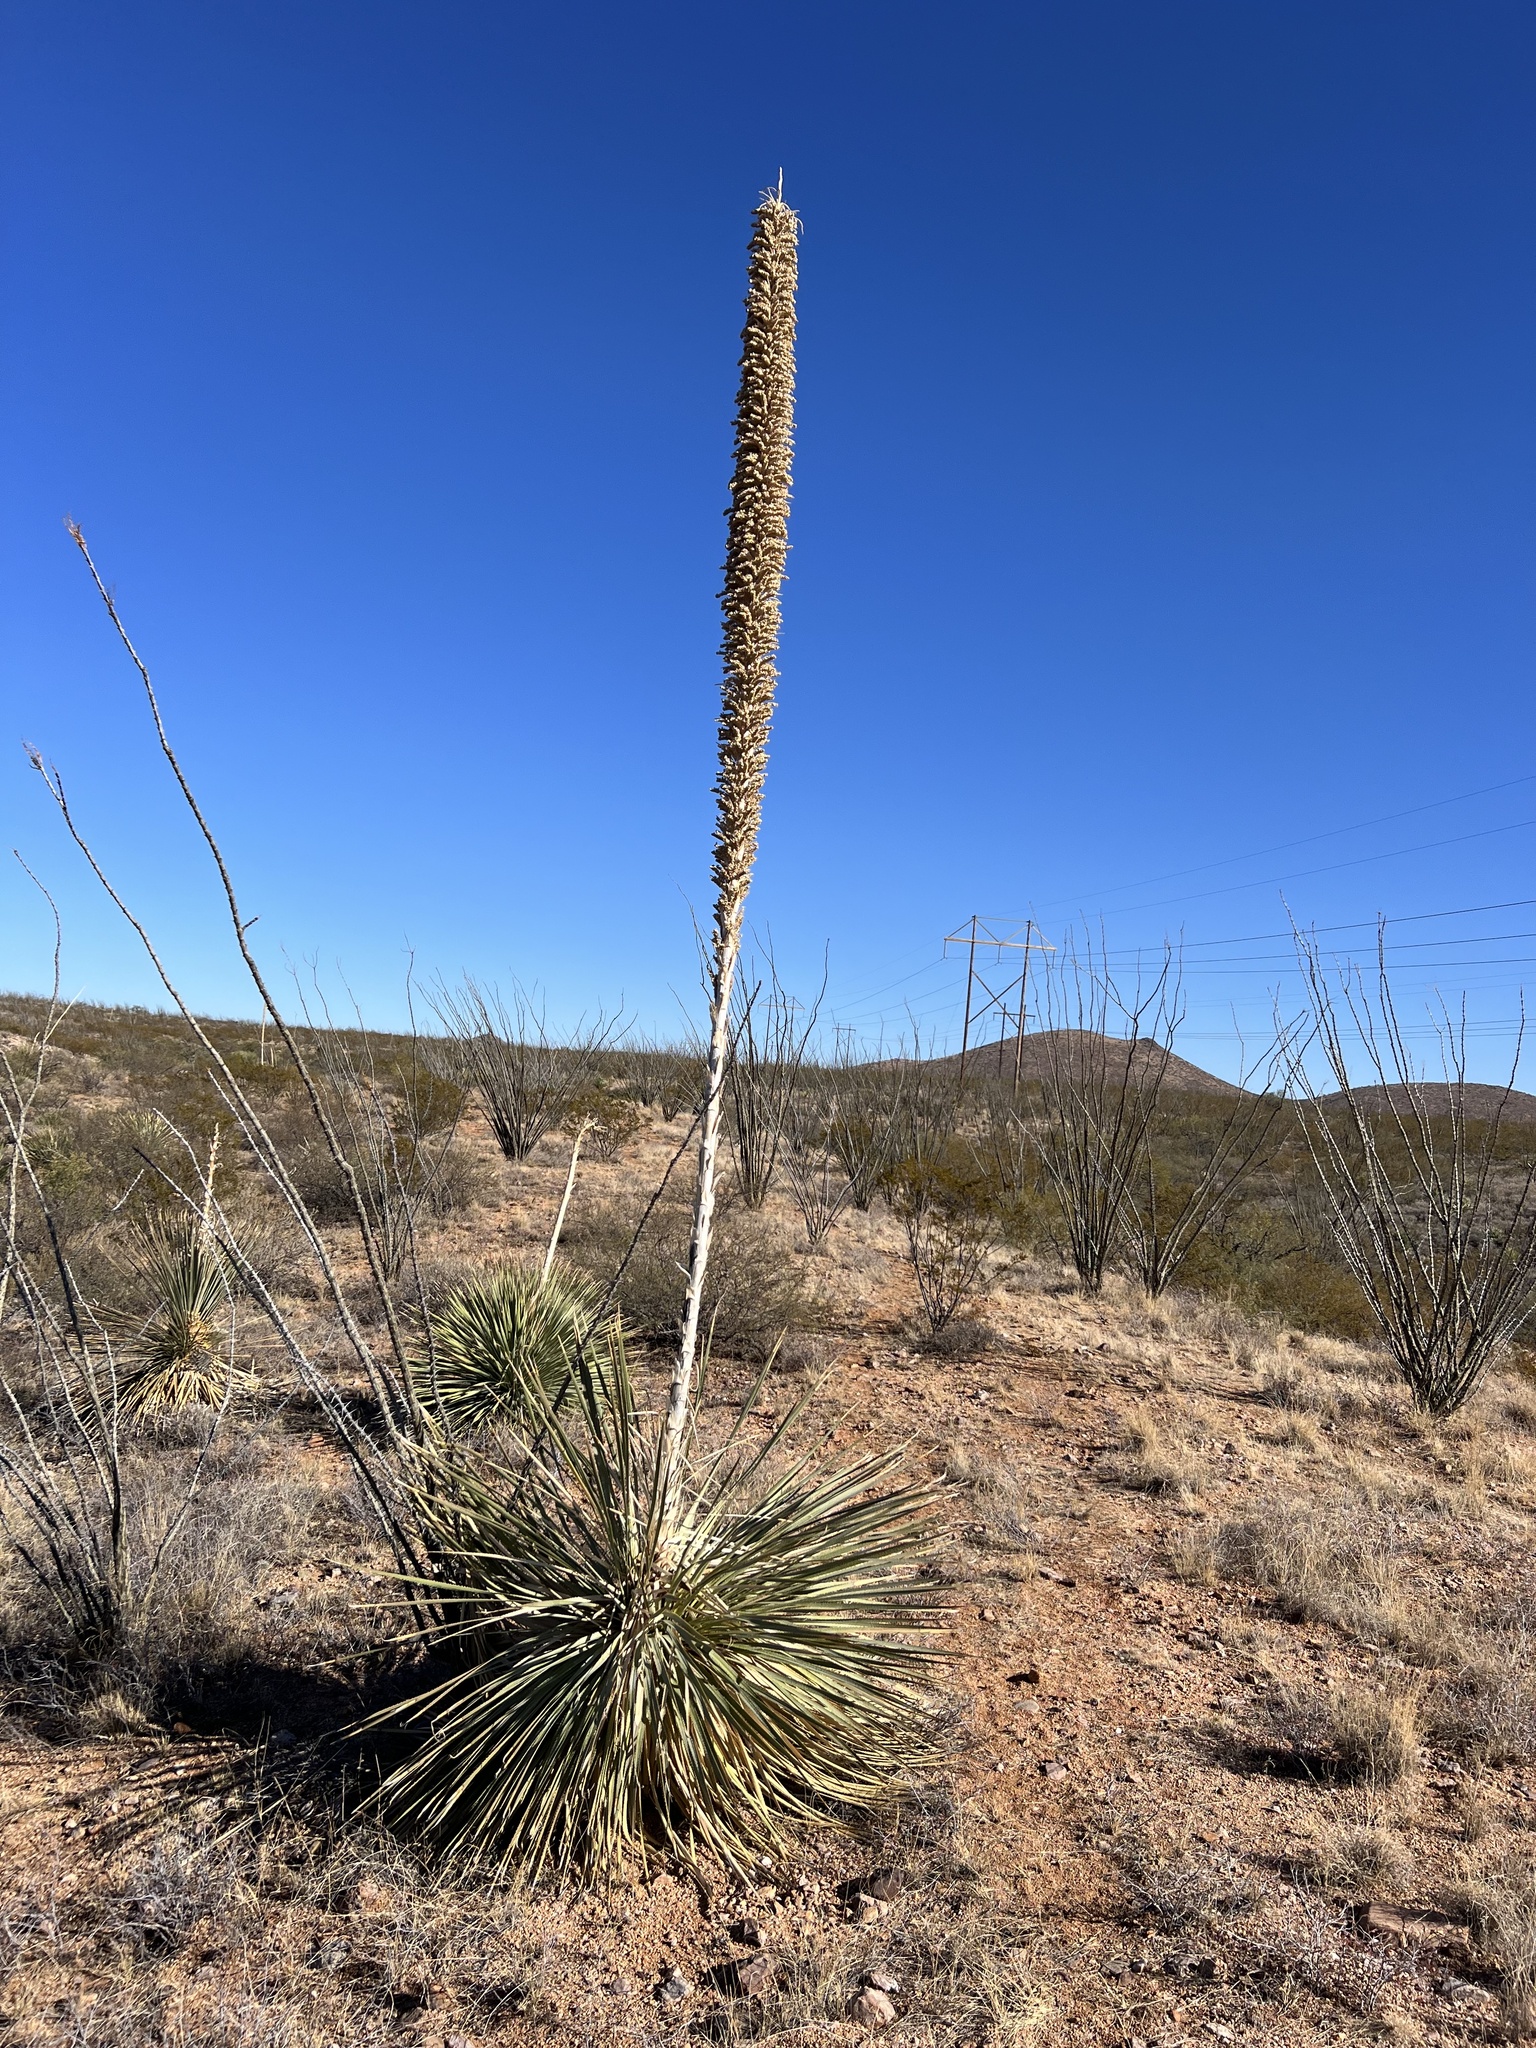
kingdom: Plantae
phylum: Tracheophyta
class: Liliopsida
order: Asparagales
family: Asparagaceae
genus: Dasylirion
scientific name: Dasylirion wheeleri
